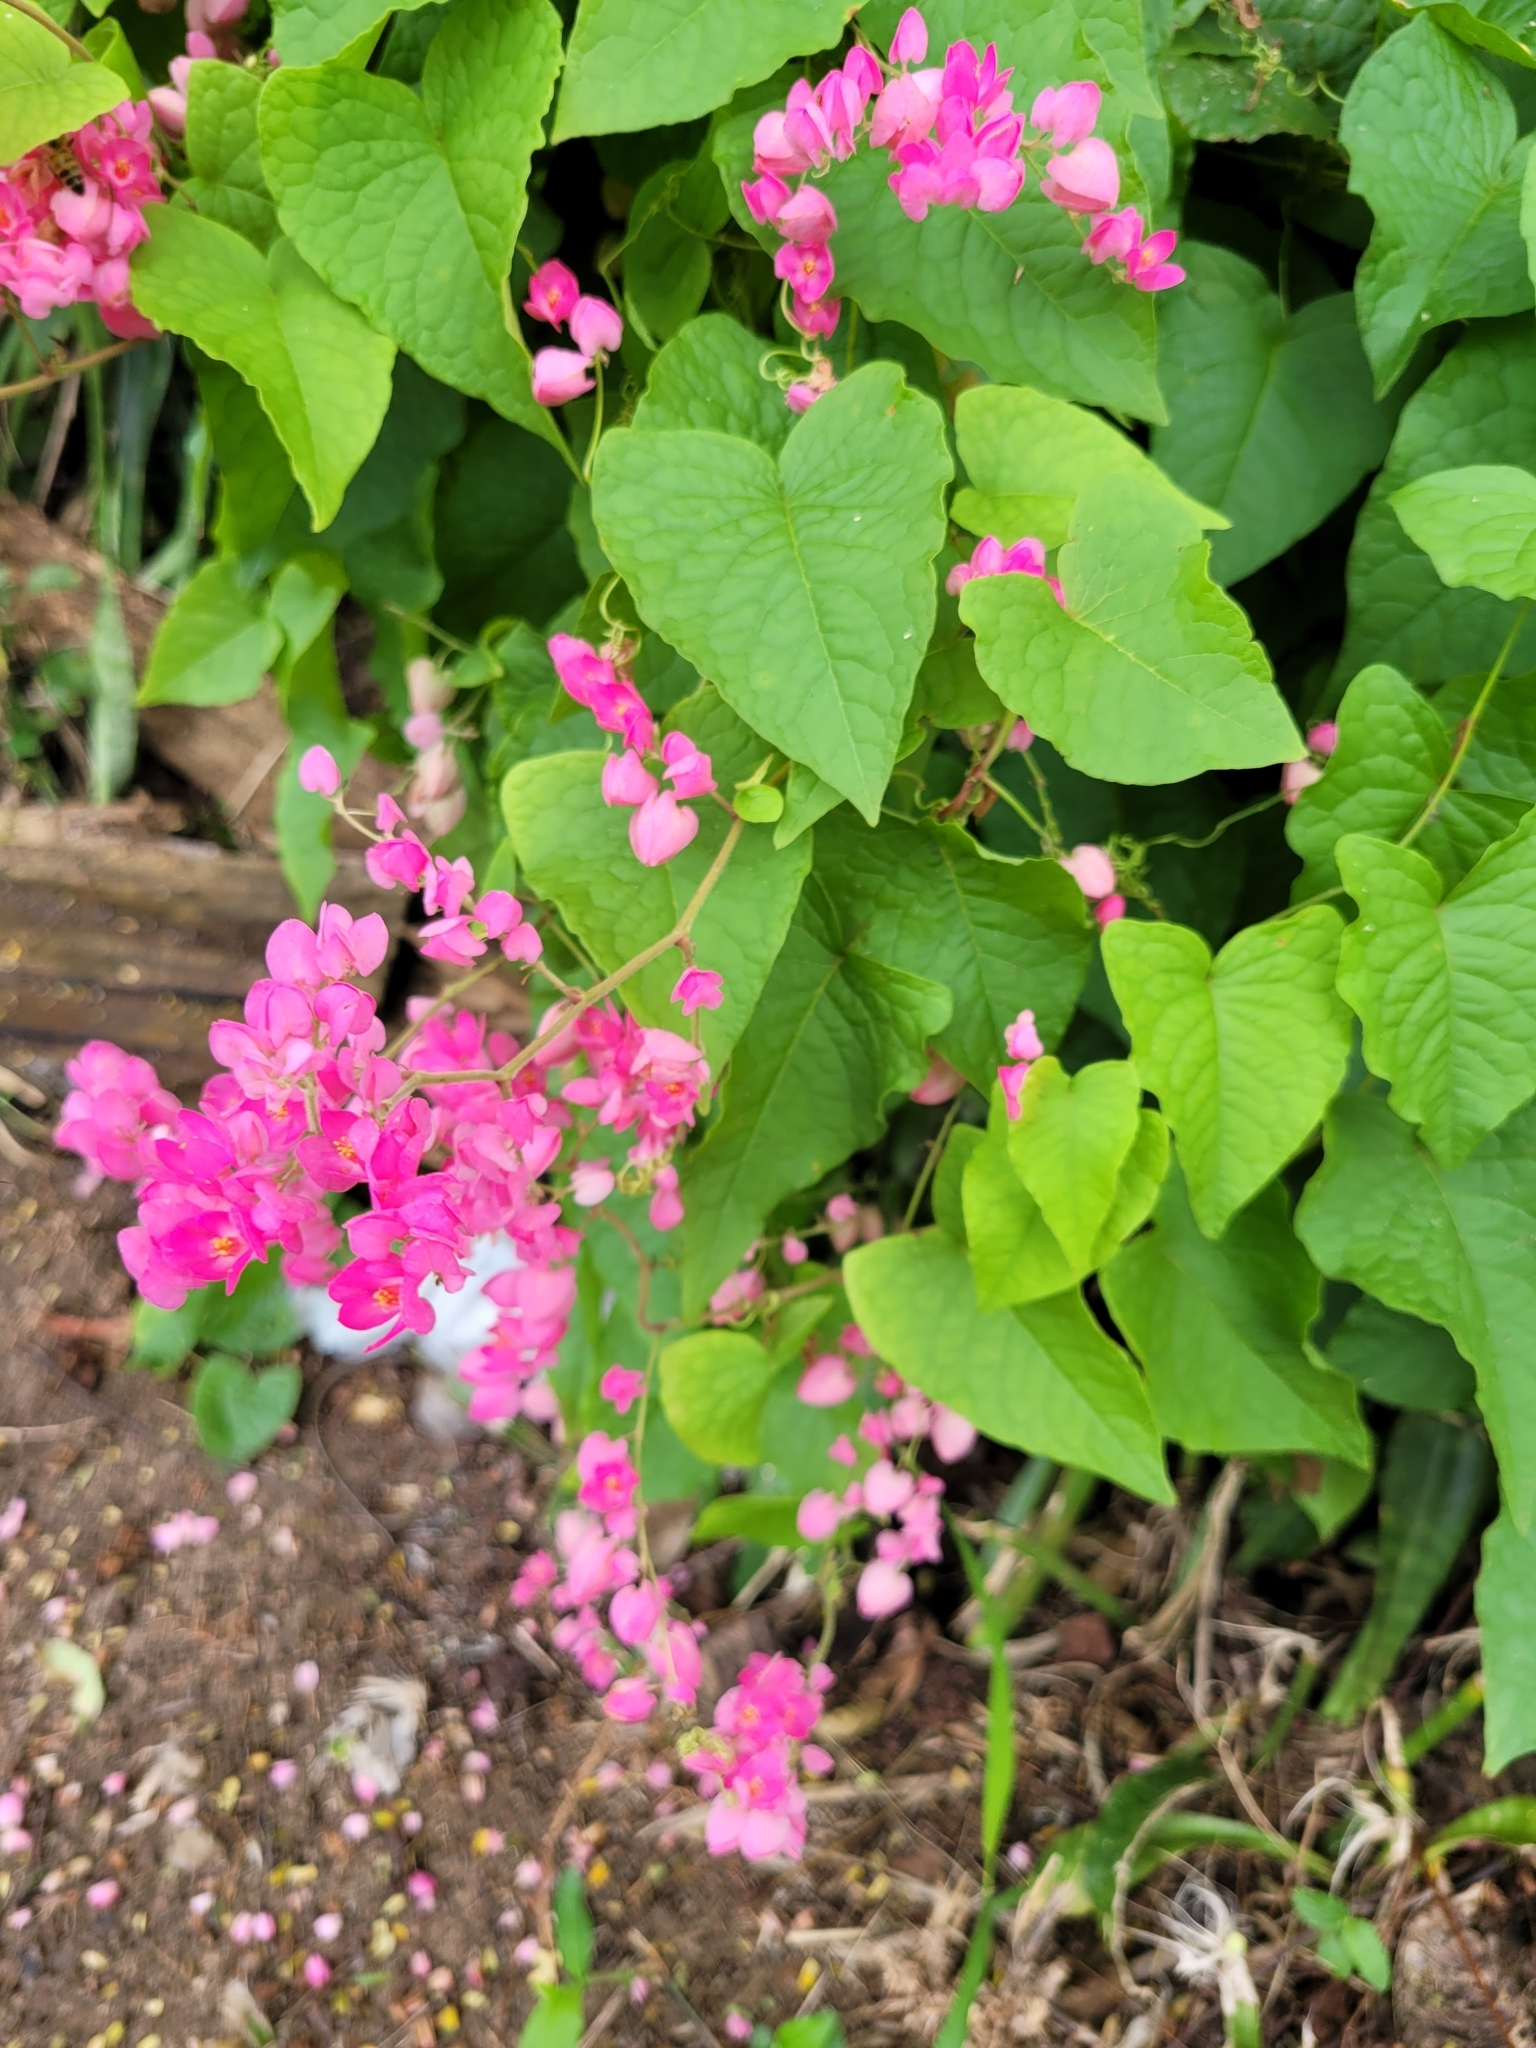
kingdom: Plantae
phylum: Tracheophyta
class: Magnoliopsida
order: Caryophyllales
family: Polygonaceae
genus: Antigonon
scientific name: Antigonon leptopus
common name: Coral vine
